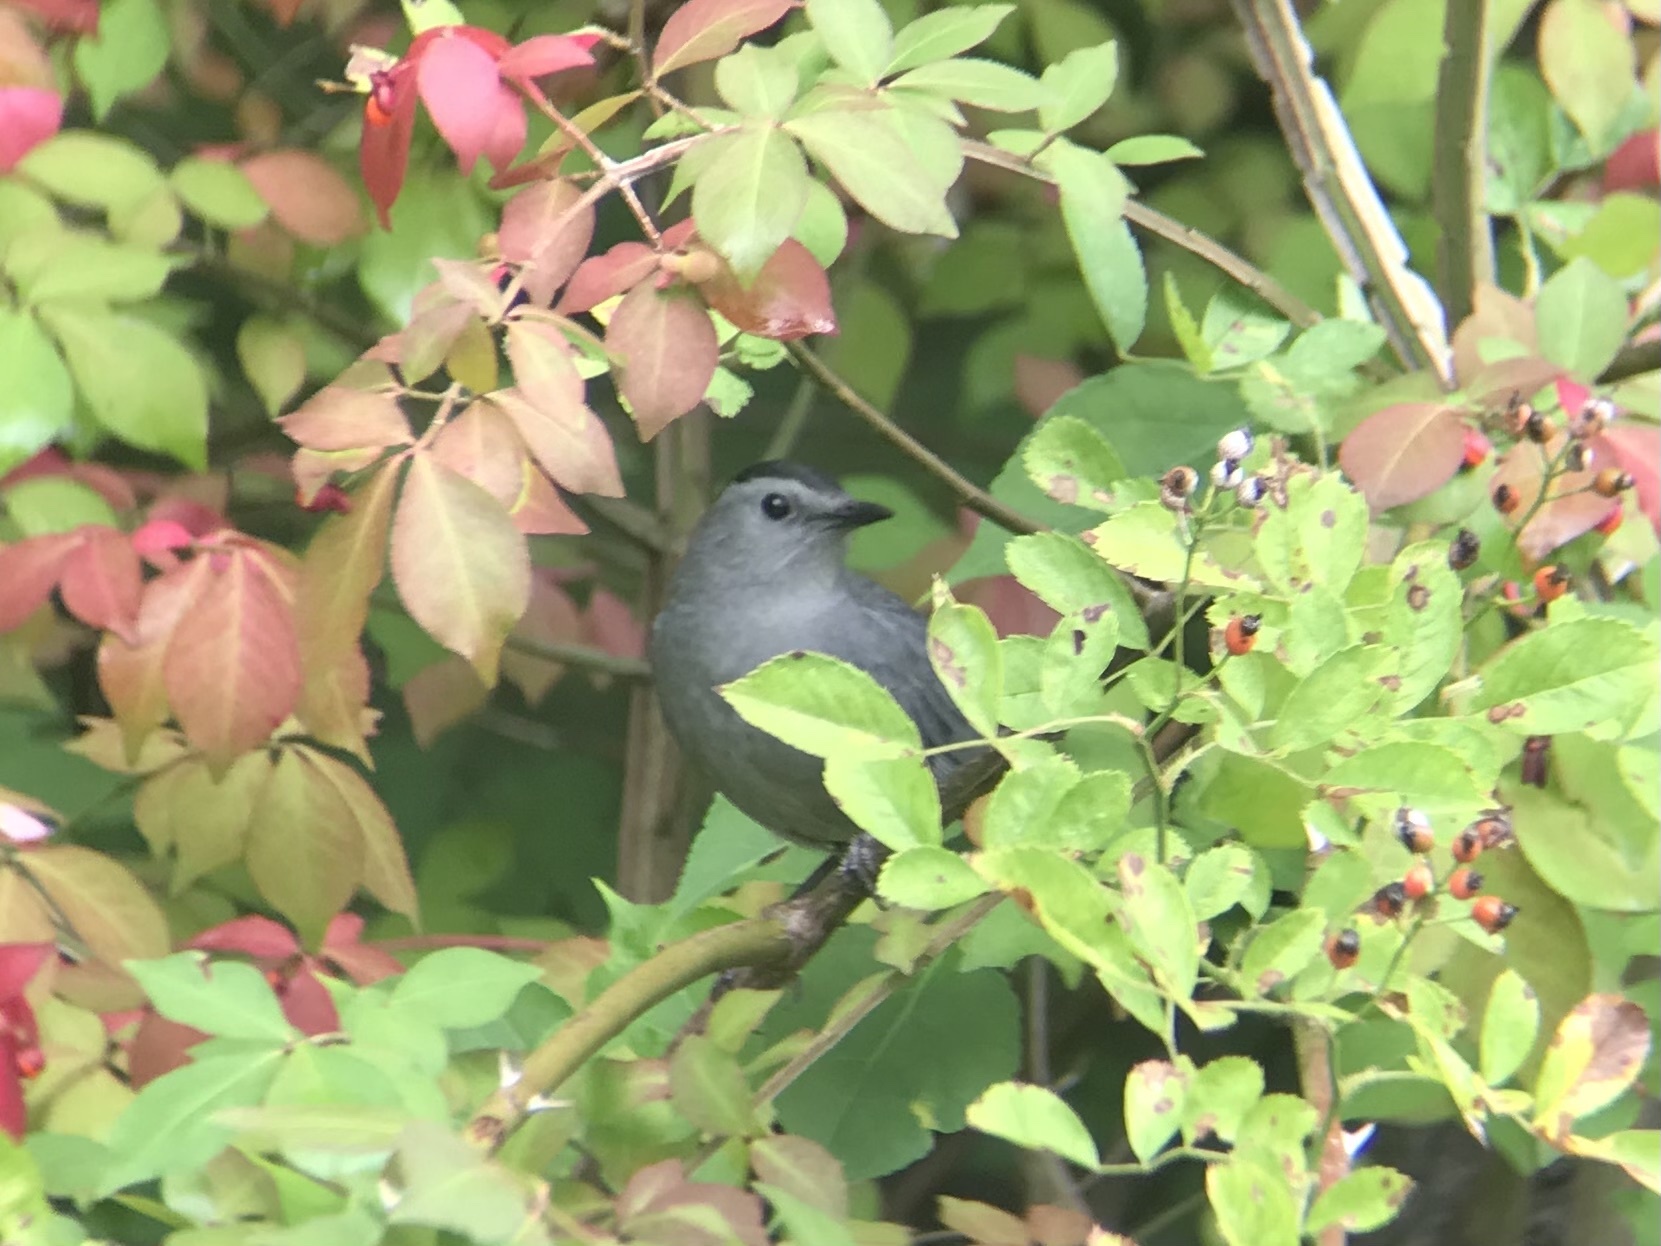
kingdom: Animalia
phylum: Chordata
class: Aves
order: Passeriformes
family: Mimidae
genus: Dumetella
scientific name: Dumetella carolinensis
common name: Gray catbird
